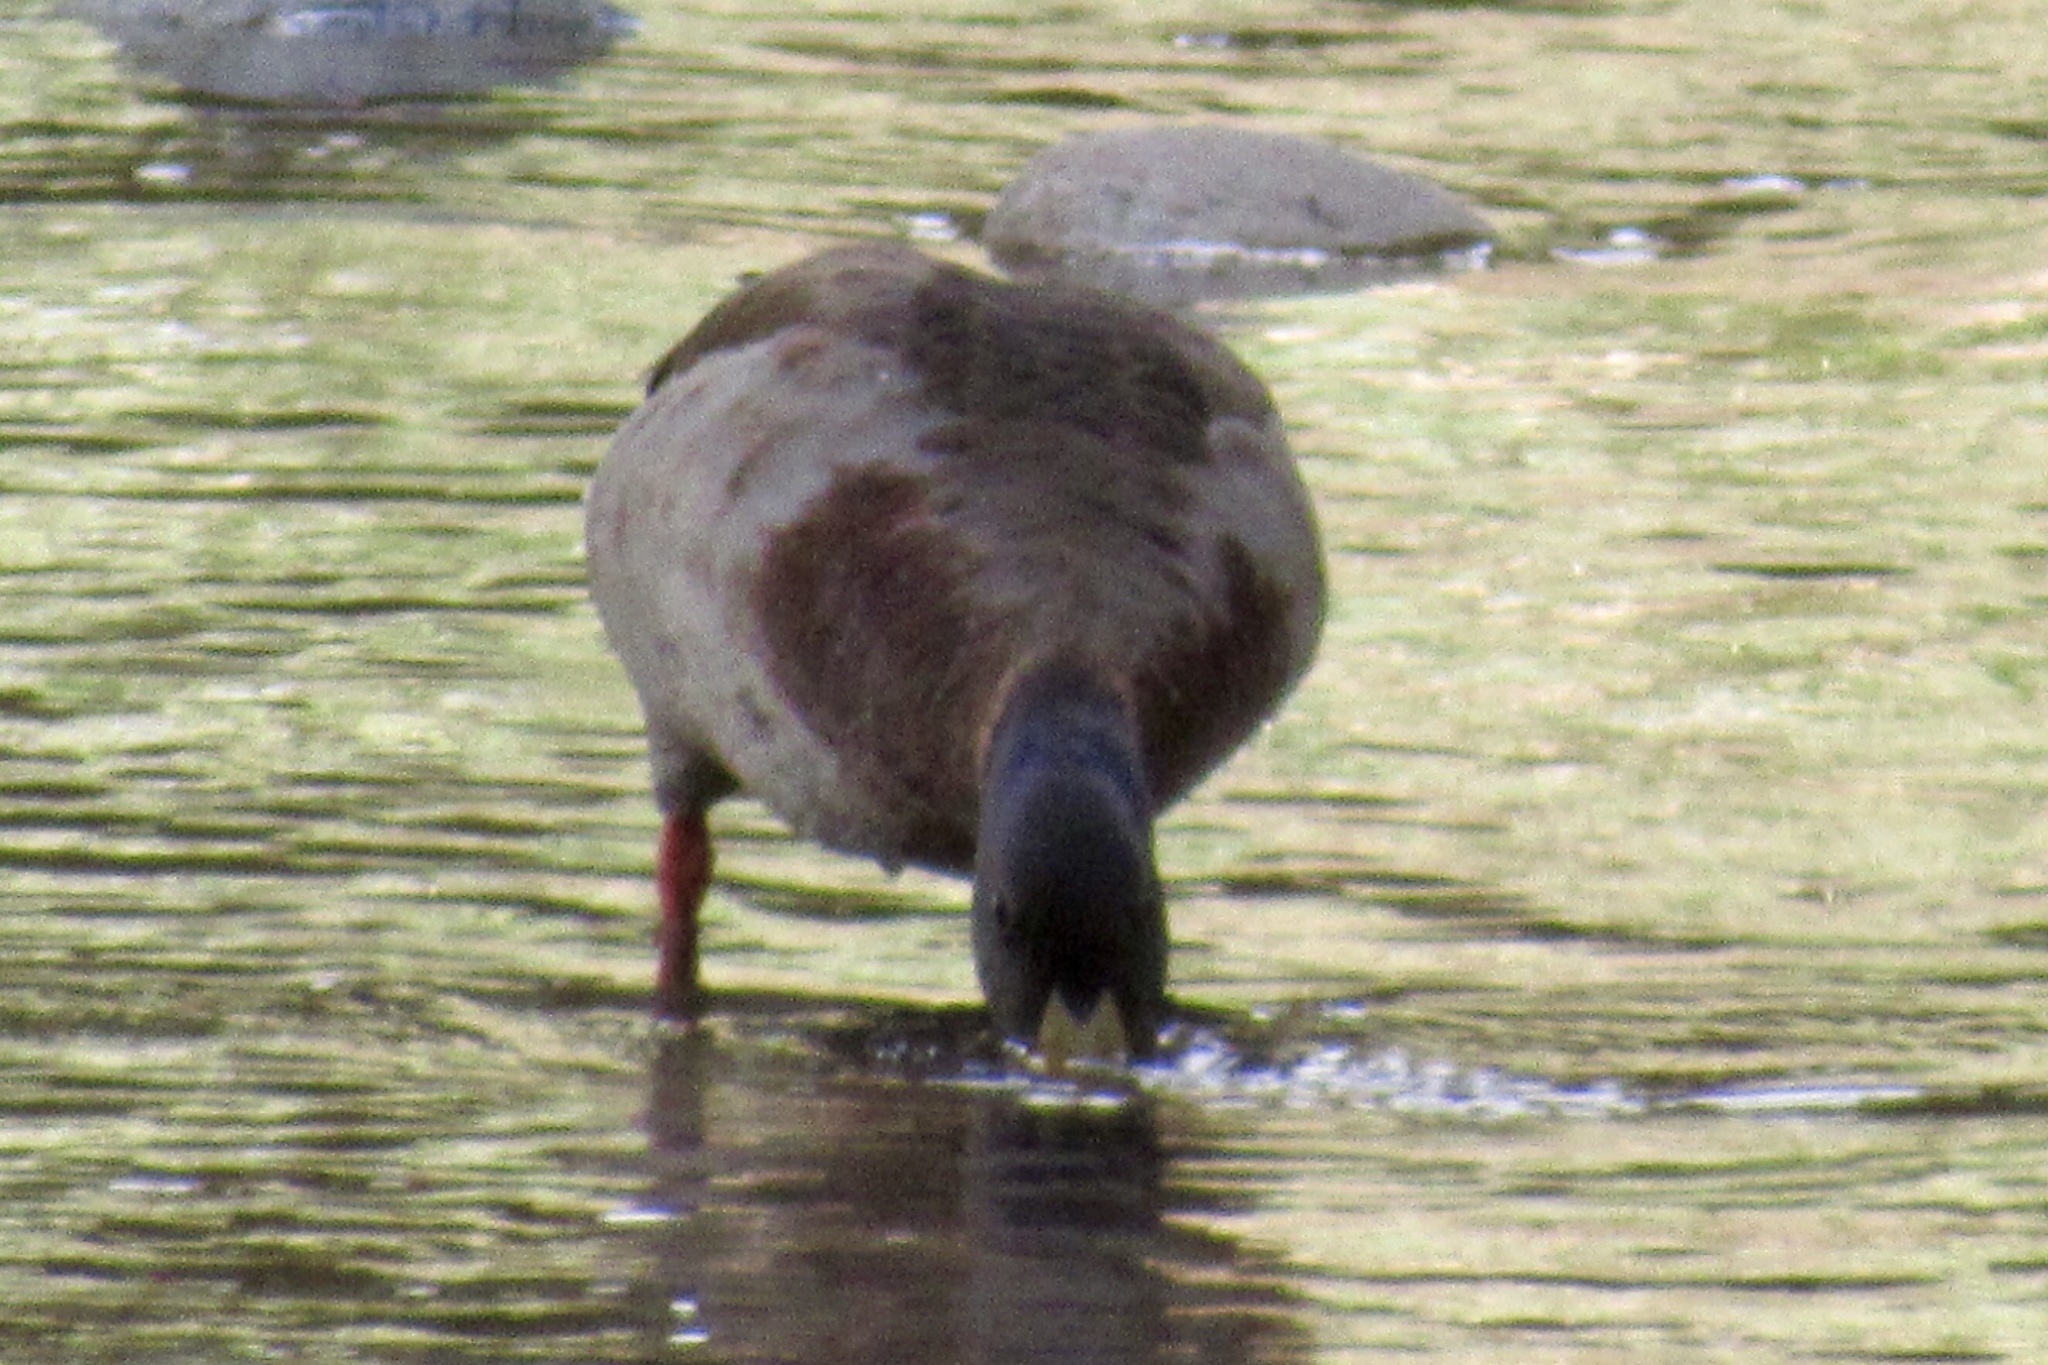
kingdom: Animalia
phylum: Chordata
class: Aves
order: Anseriformes
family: Anatidae
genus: Anas
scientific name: Anas platyrhynchos
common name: Mallard
